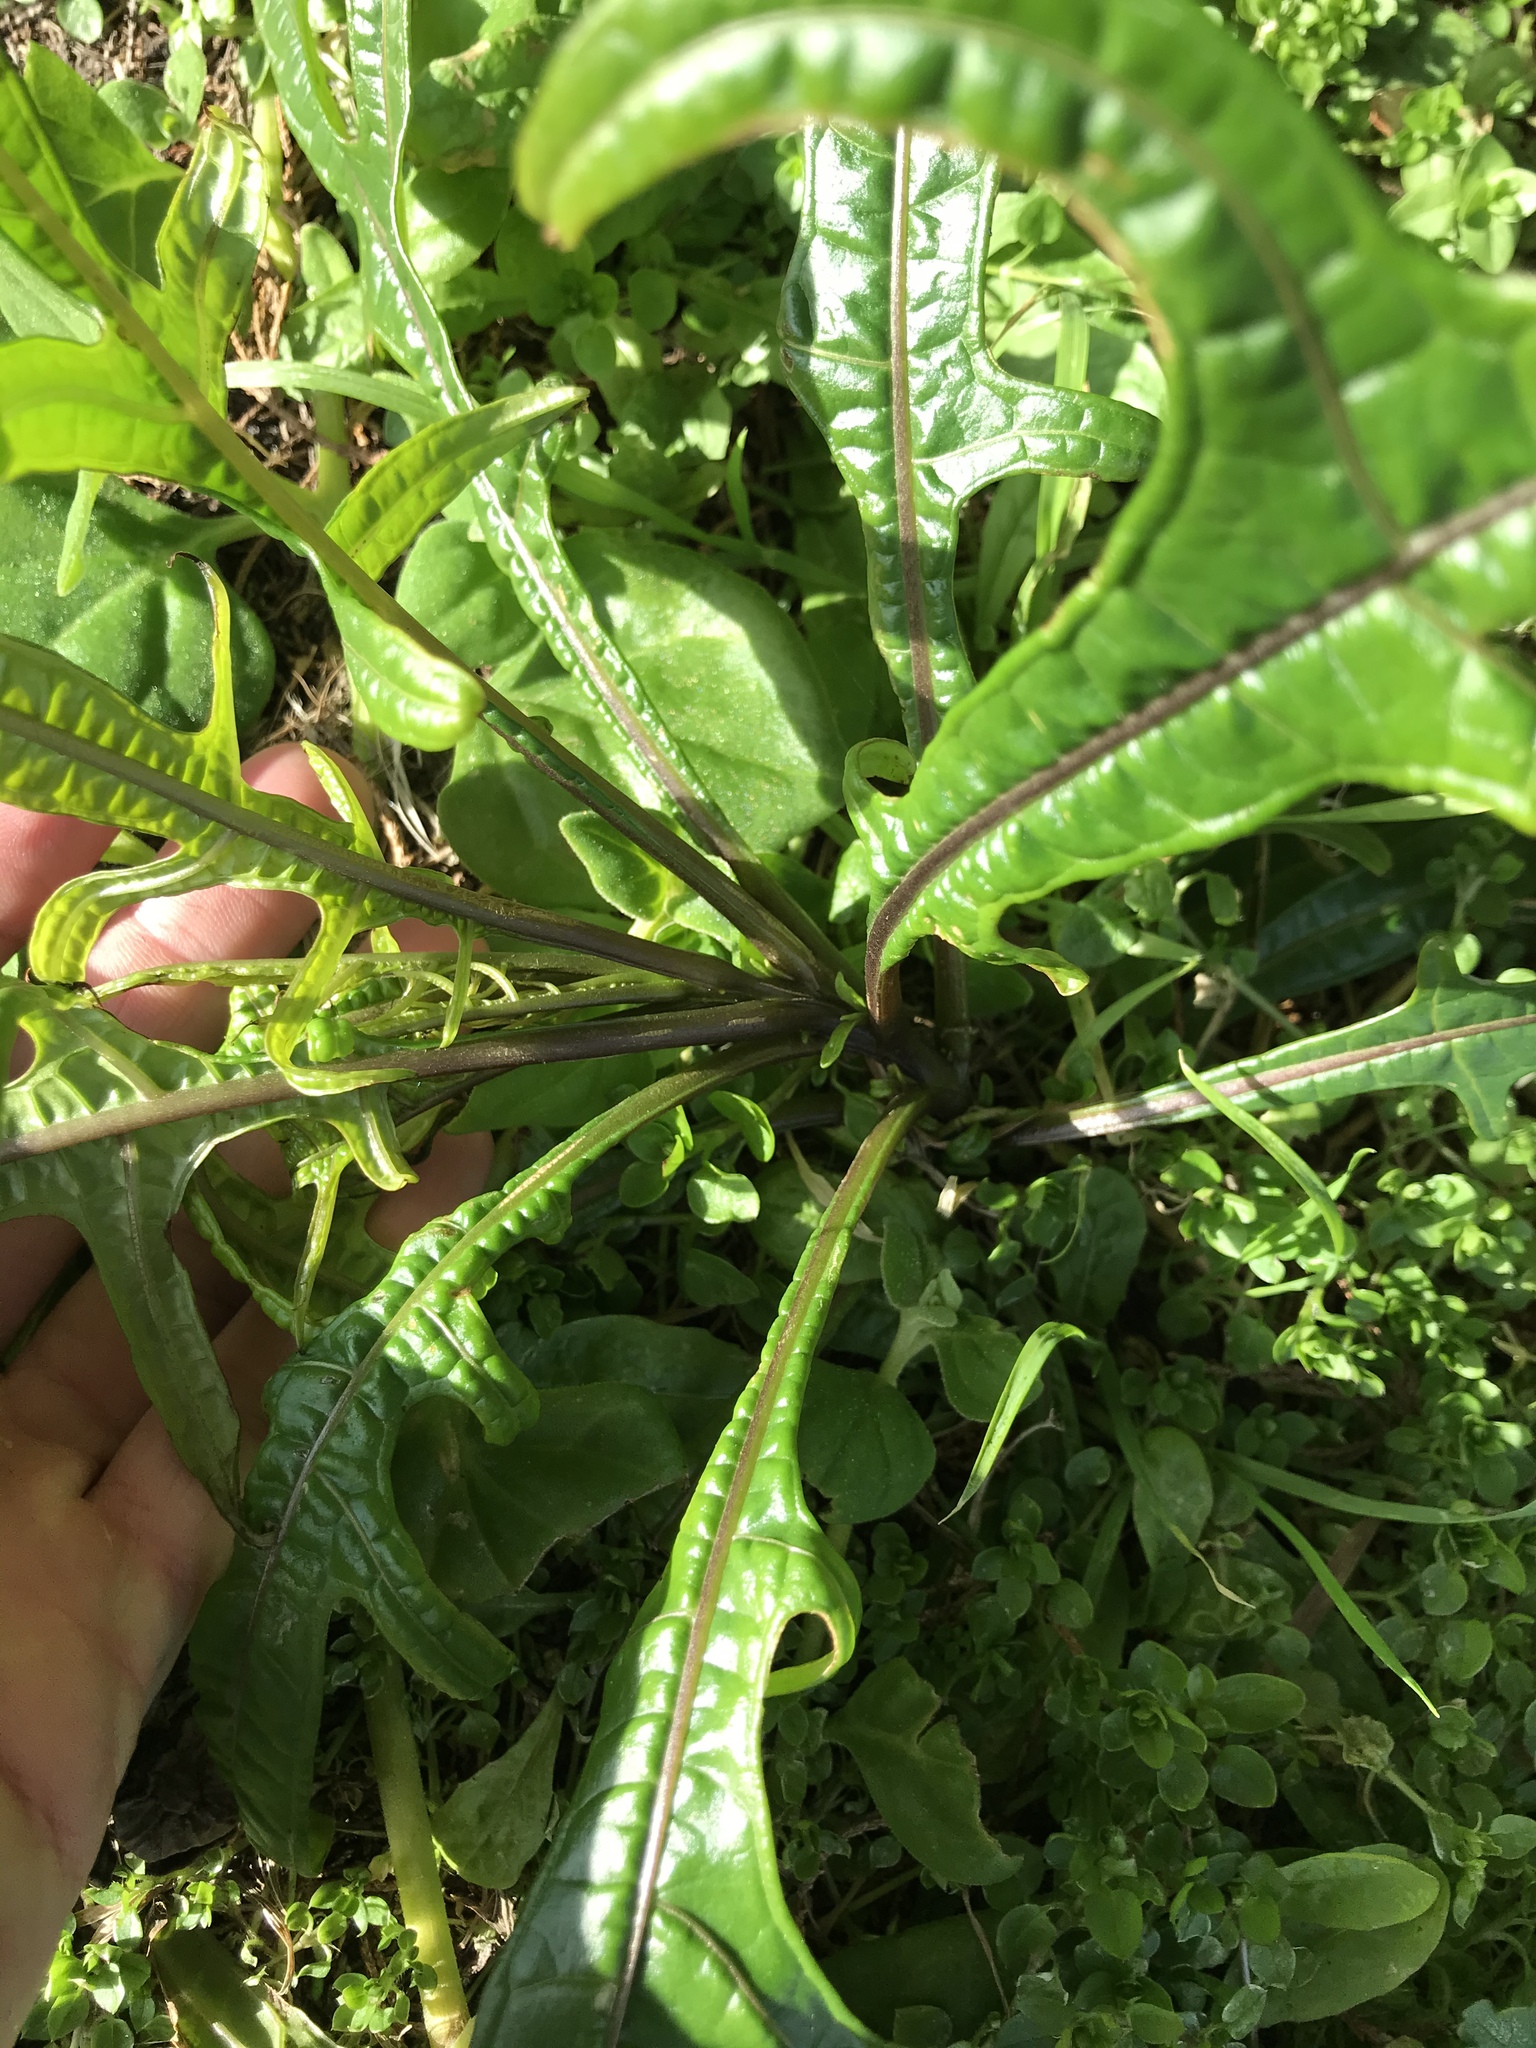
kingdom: Plantae
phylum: Tracheophyta
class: Magnoliopsida
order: Solanales
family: Solanaceae
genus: Solanum
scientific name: Solanum
